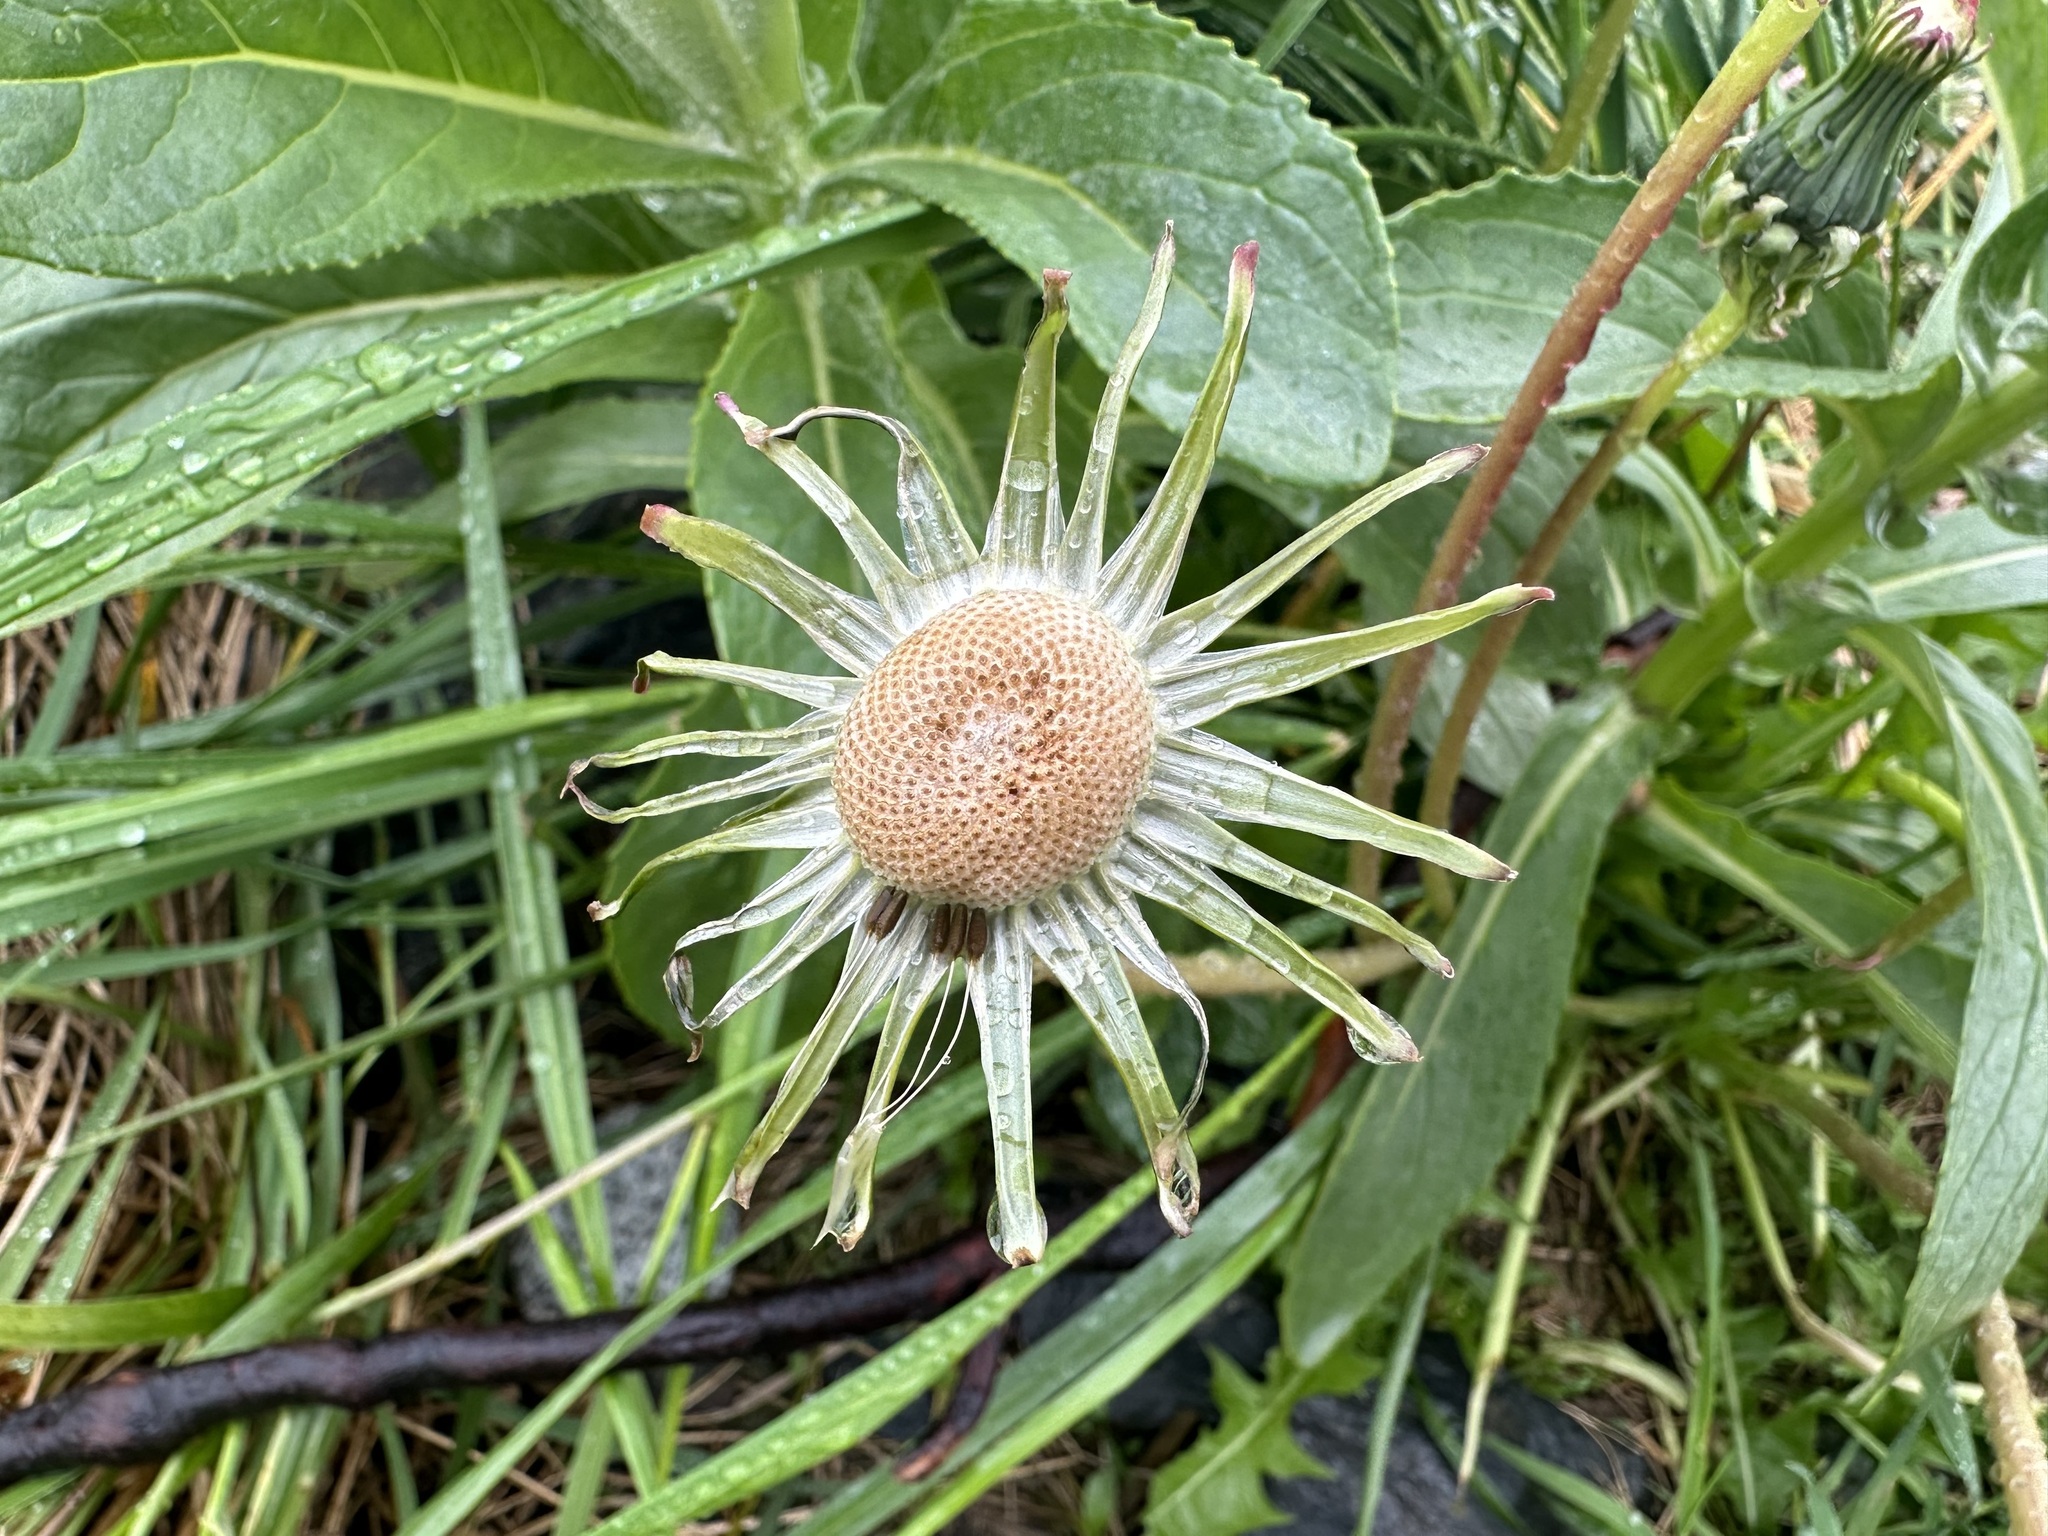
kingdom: Plantae
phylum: Tracheophyta
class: Magnoliopsida
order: Asterales
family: Asteraceae
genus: Taraxacum
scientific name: Taraxacum officinale
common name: Common dandelion
